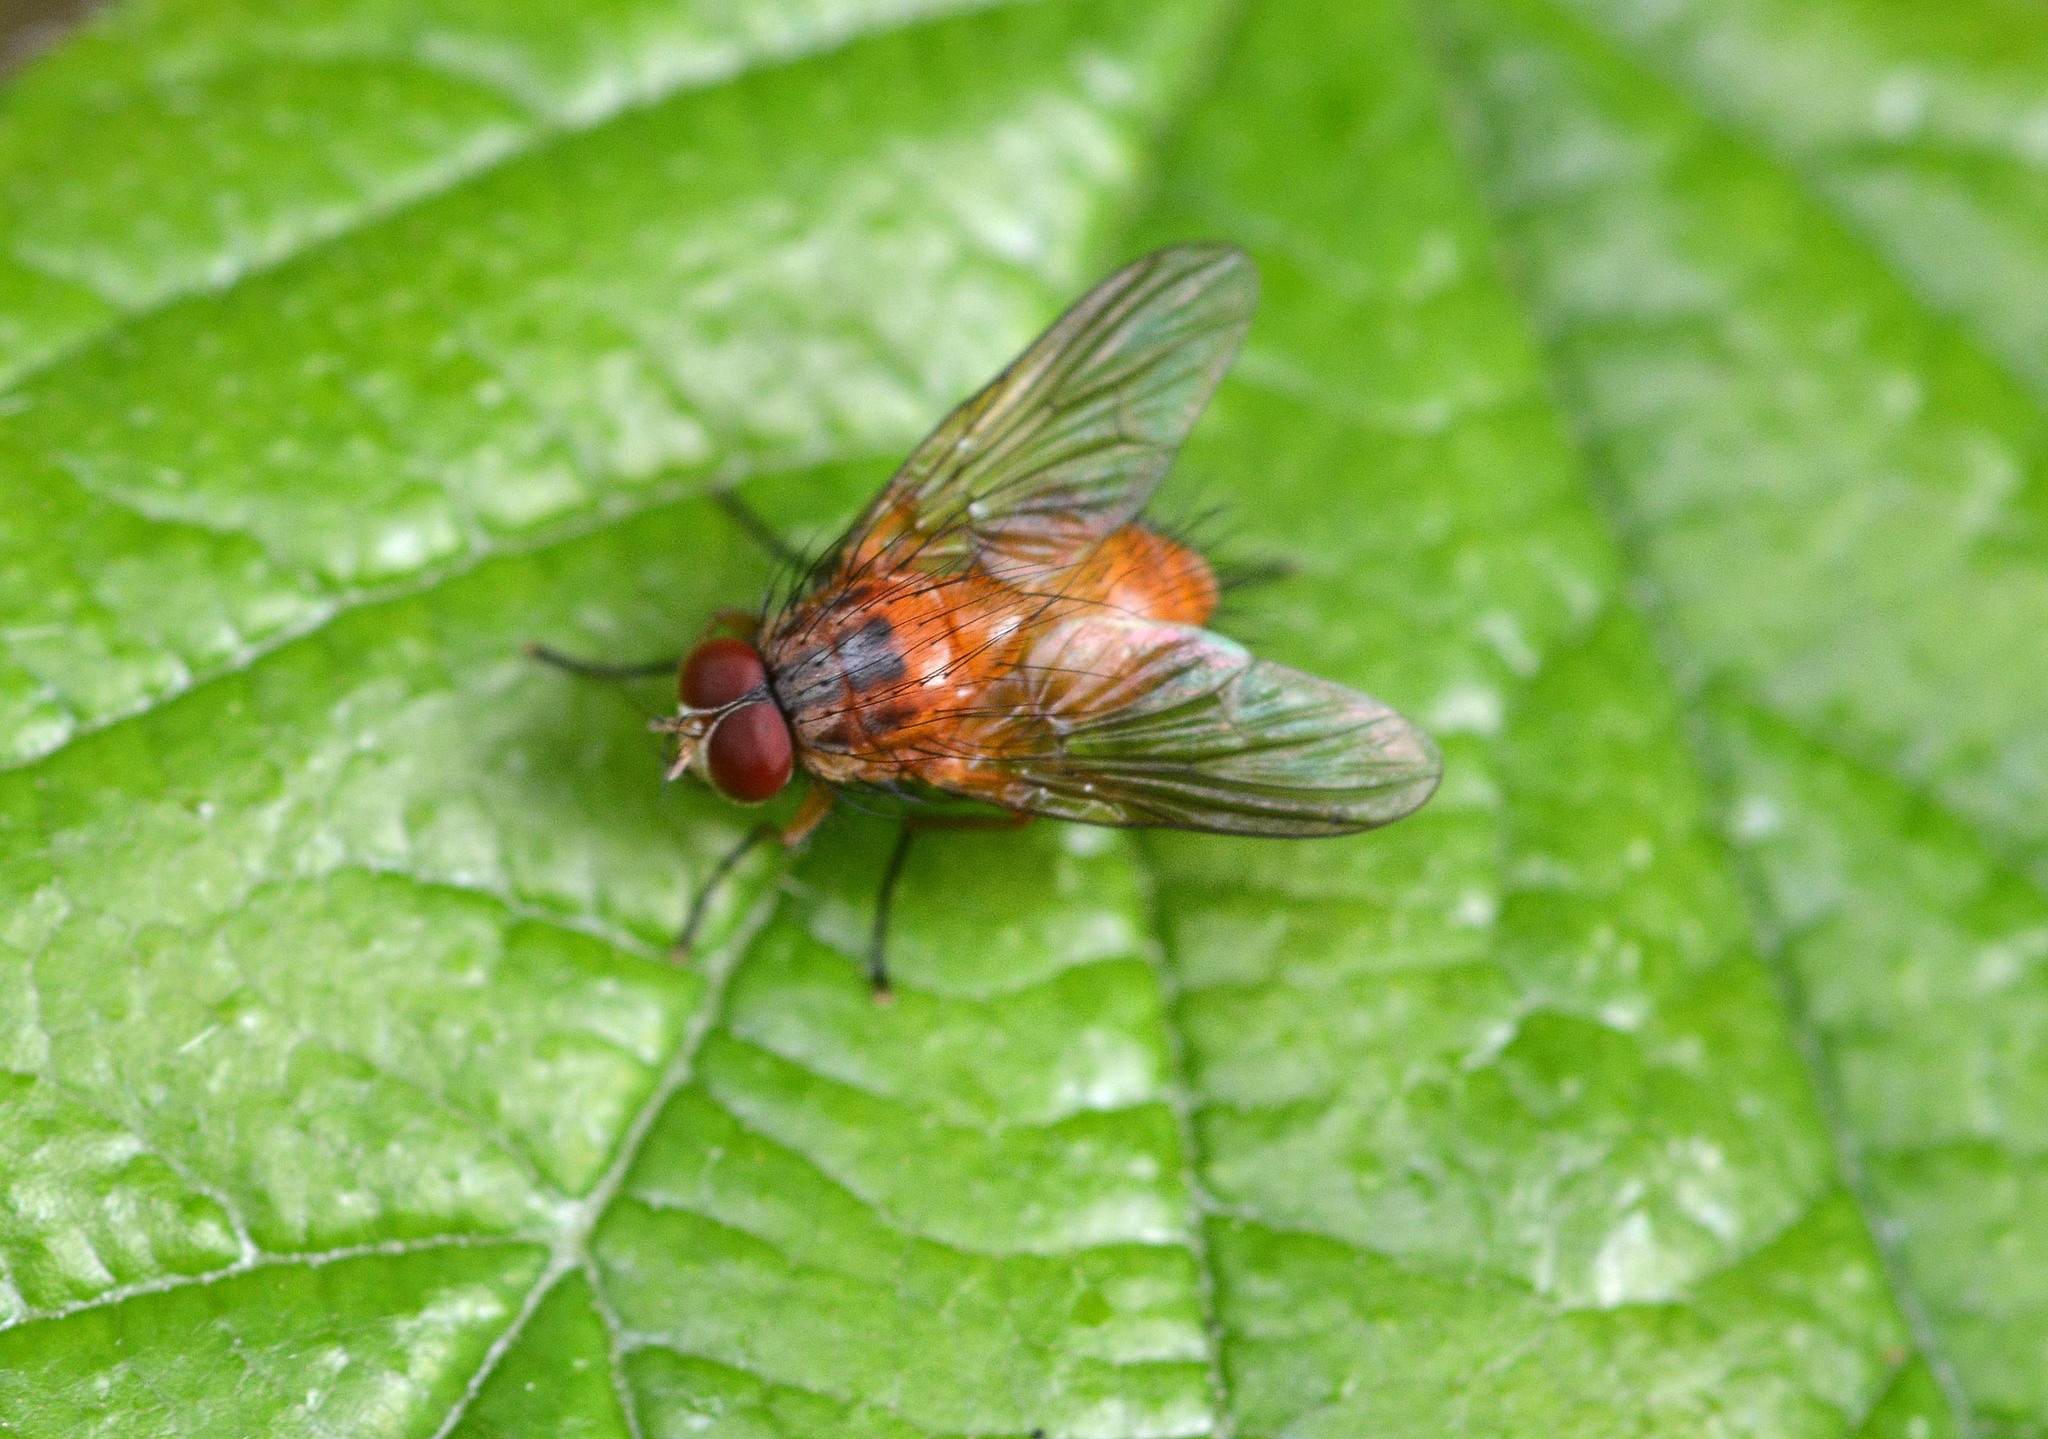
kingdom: Animalia
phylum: Arthropoda
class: Insecta
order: Diptera
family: Muscidae
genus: Phaonia
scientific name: Phaonia pallida
